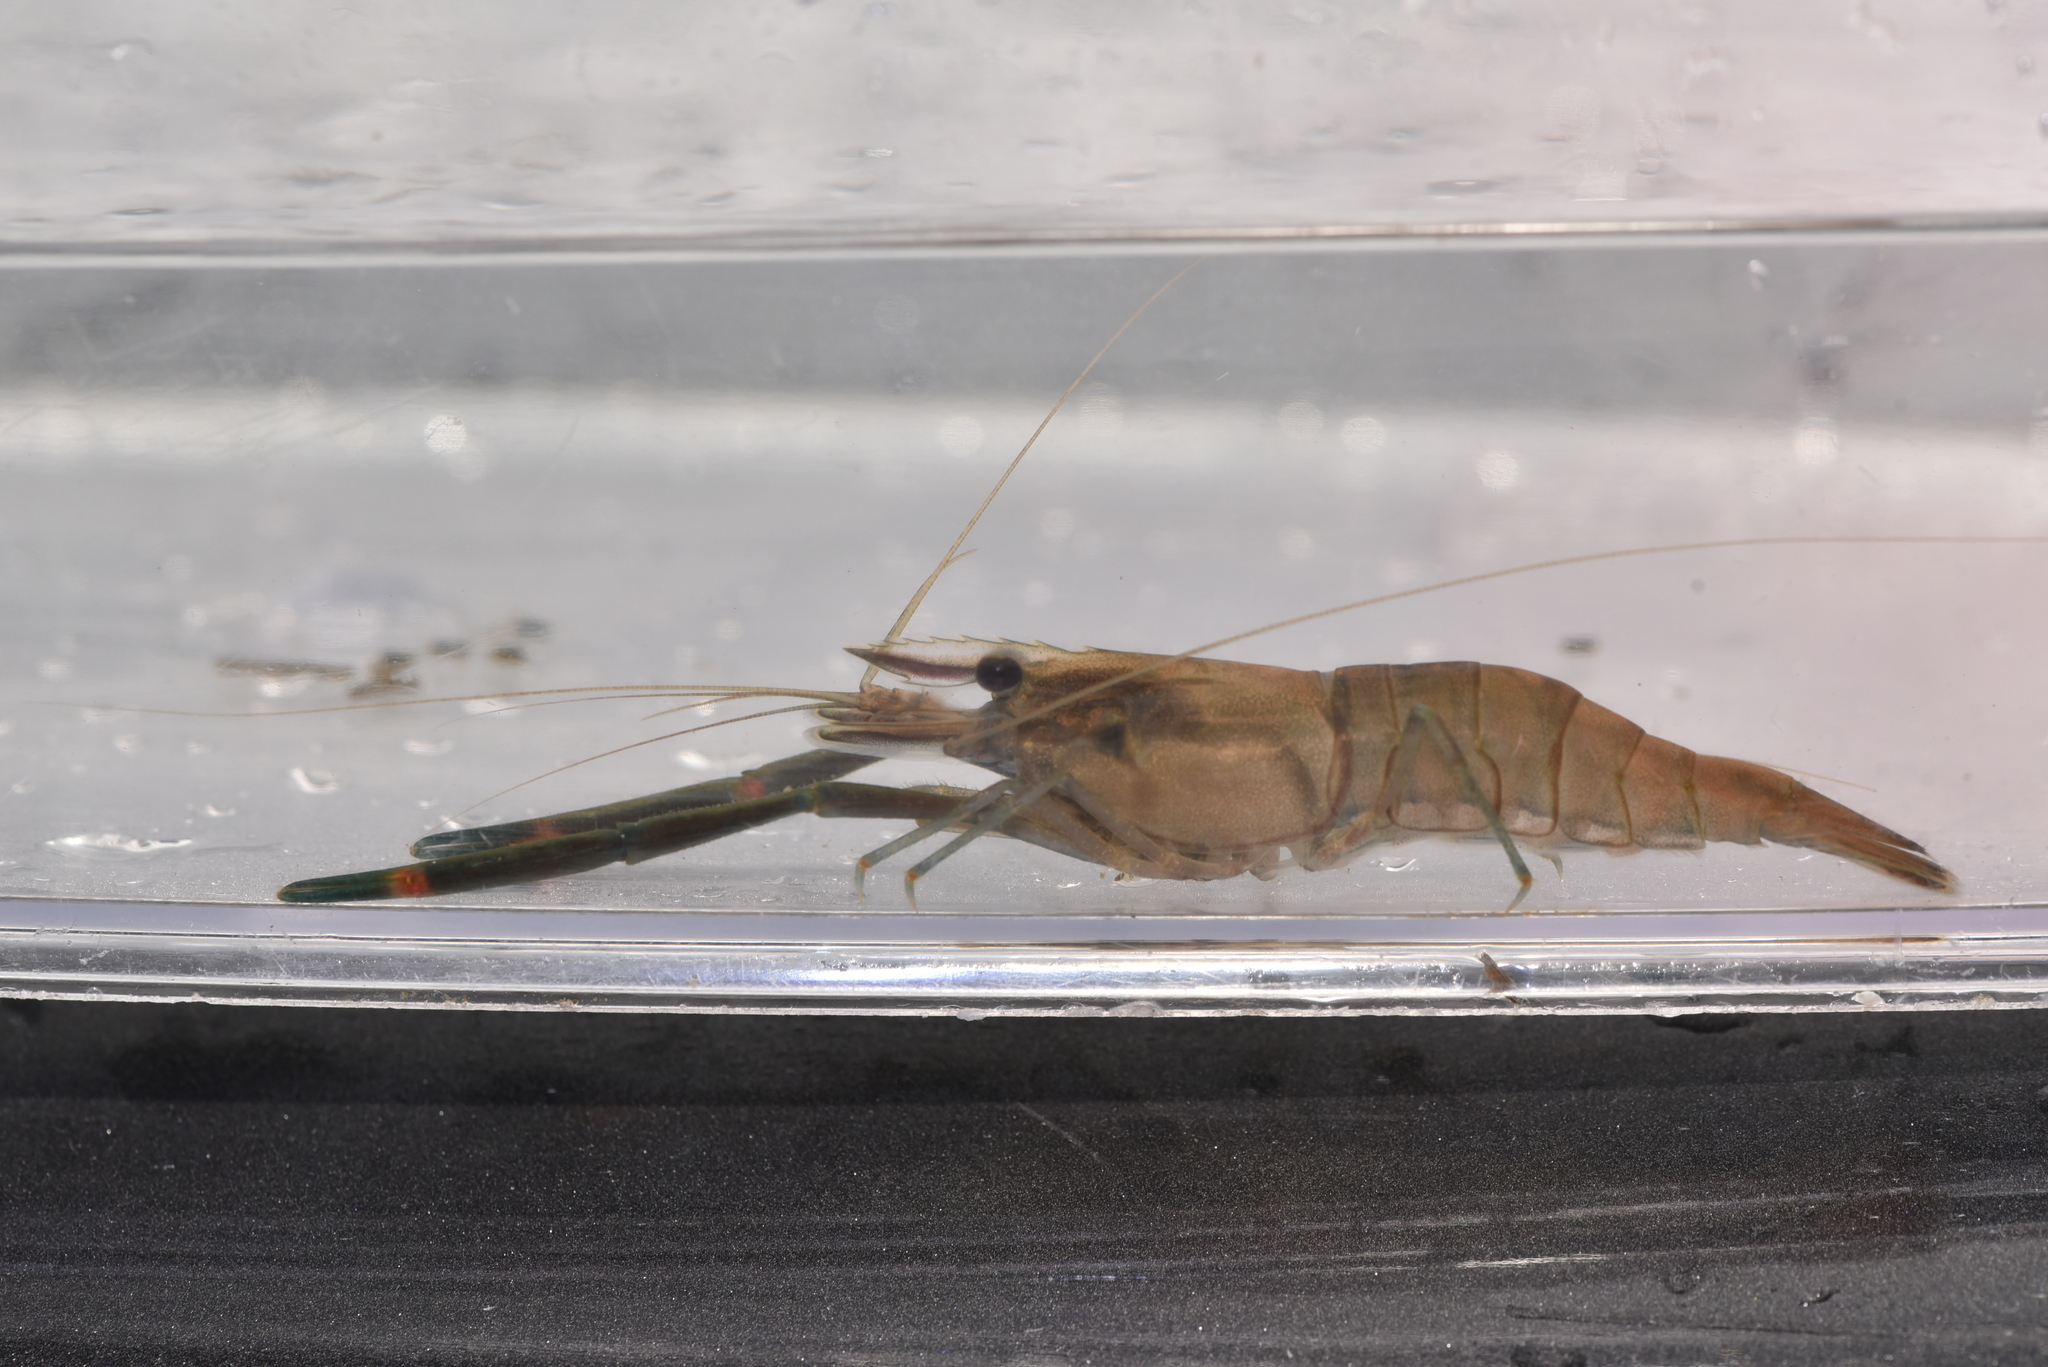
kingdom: Animalia
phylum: Arthropoda
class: Malacostraca
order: Decapoda
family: Palaemonidae
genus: Macrobrachium
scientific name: Macrobrachium asperulum
